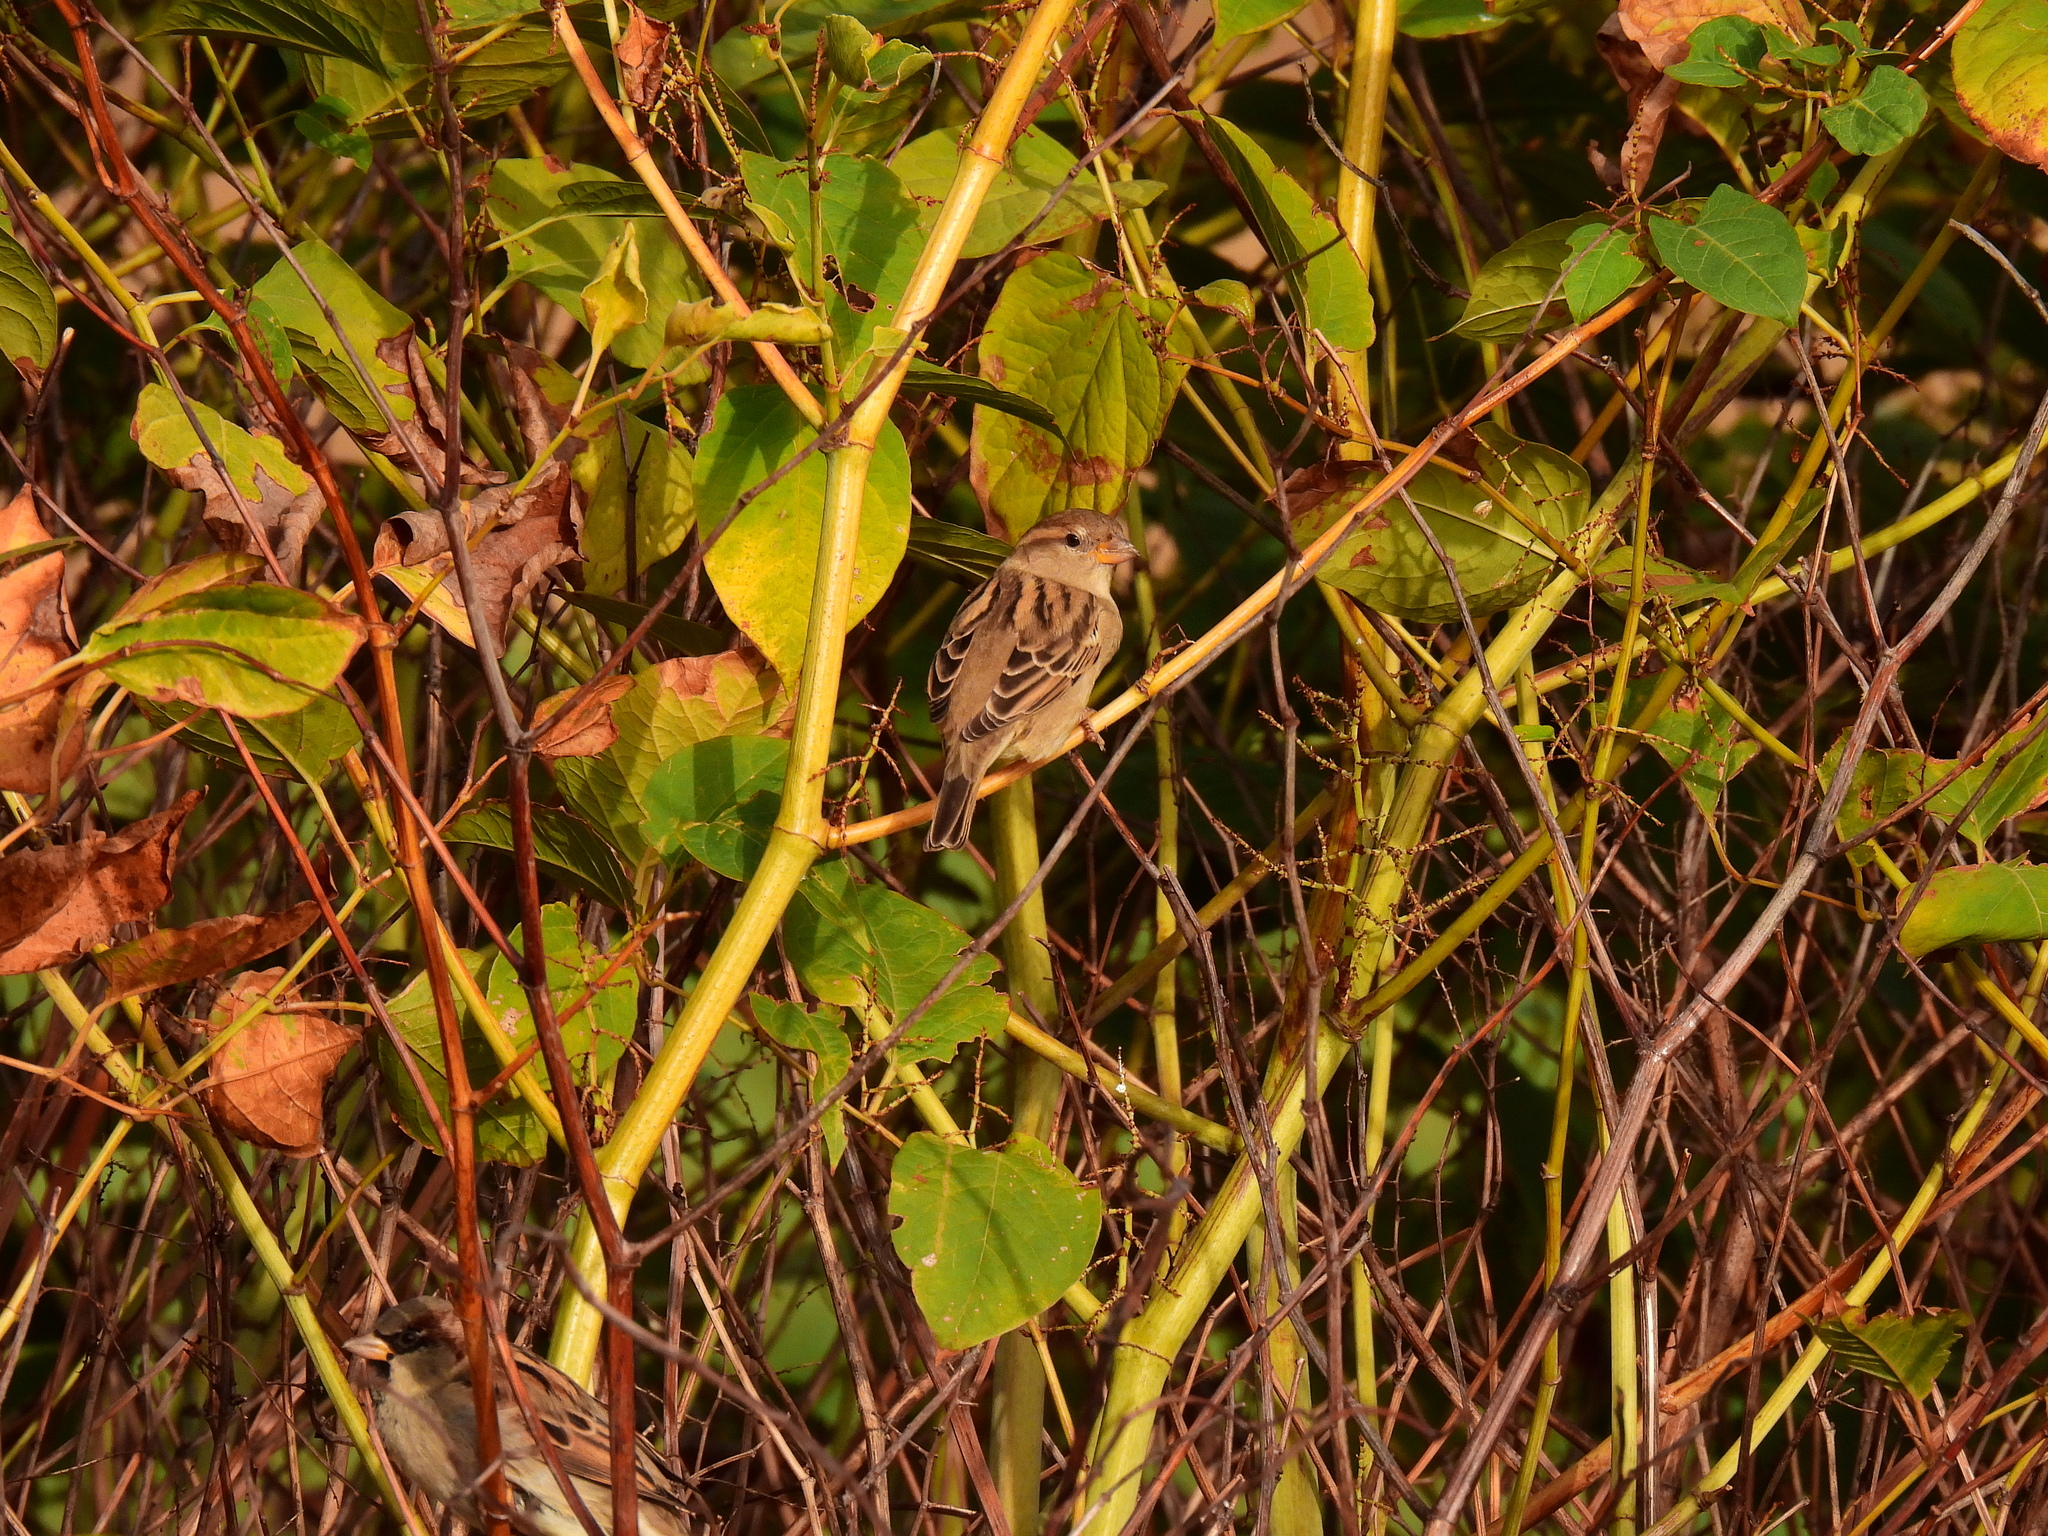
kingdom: Animalia
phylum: Chordata
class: Aves
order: Passeriformes
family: Passeridae
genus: Passer
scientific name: Passer domesticus
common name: House sparrow
